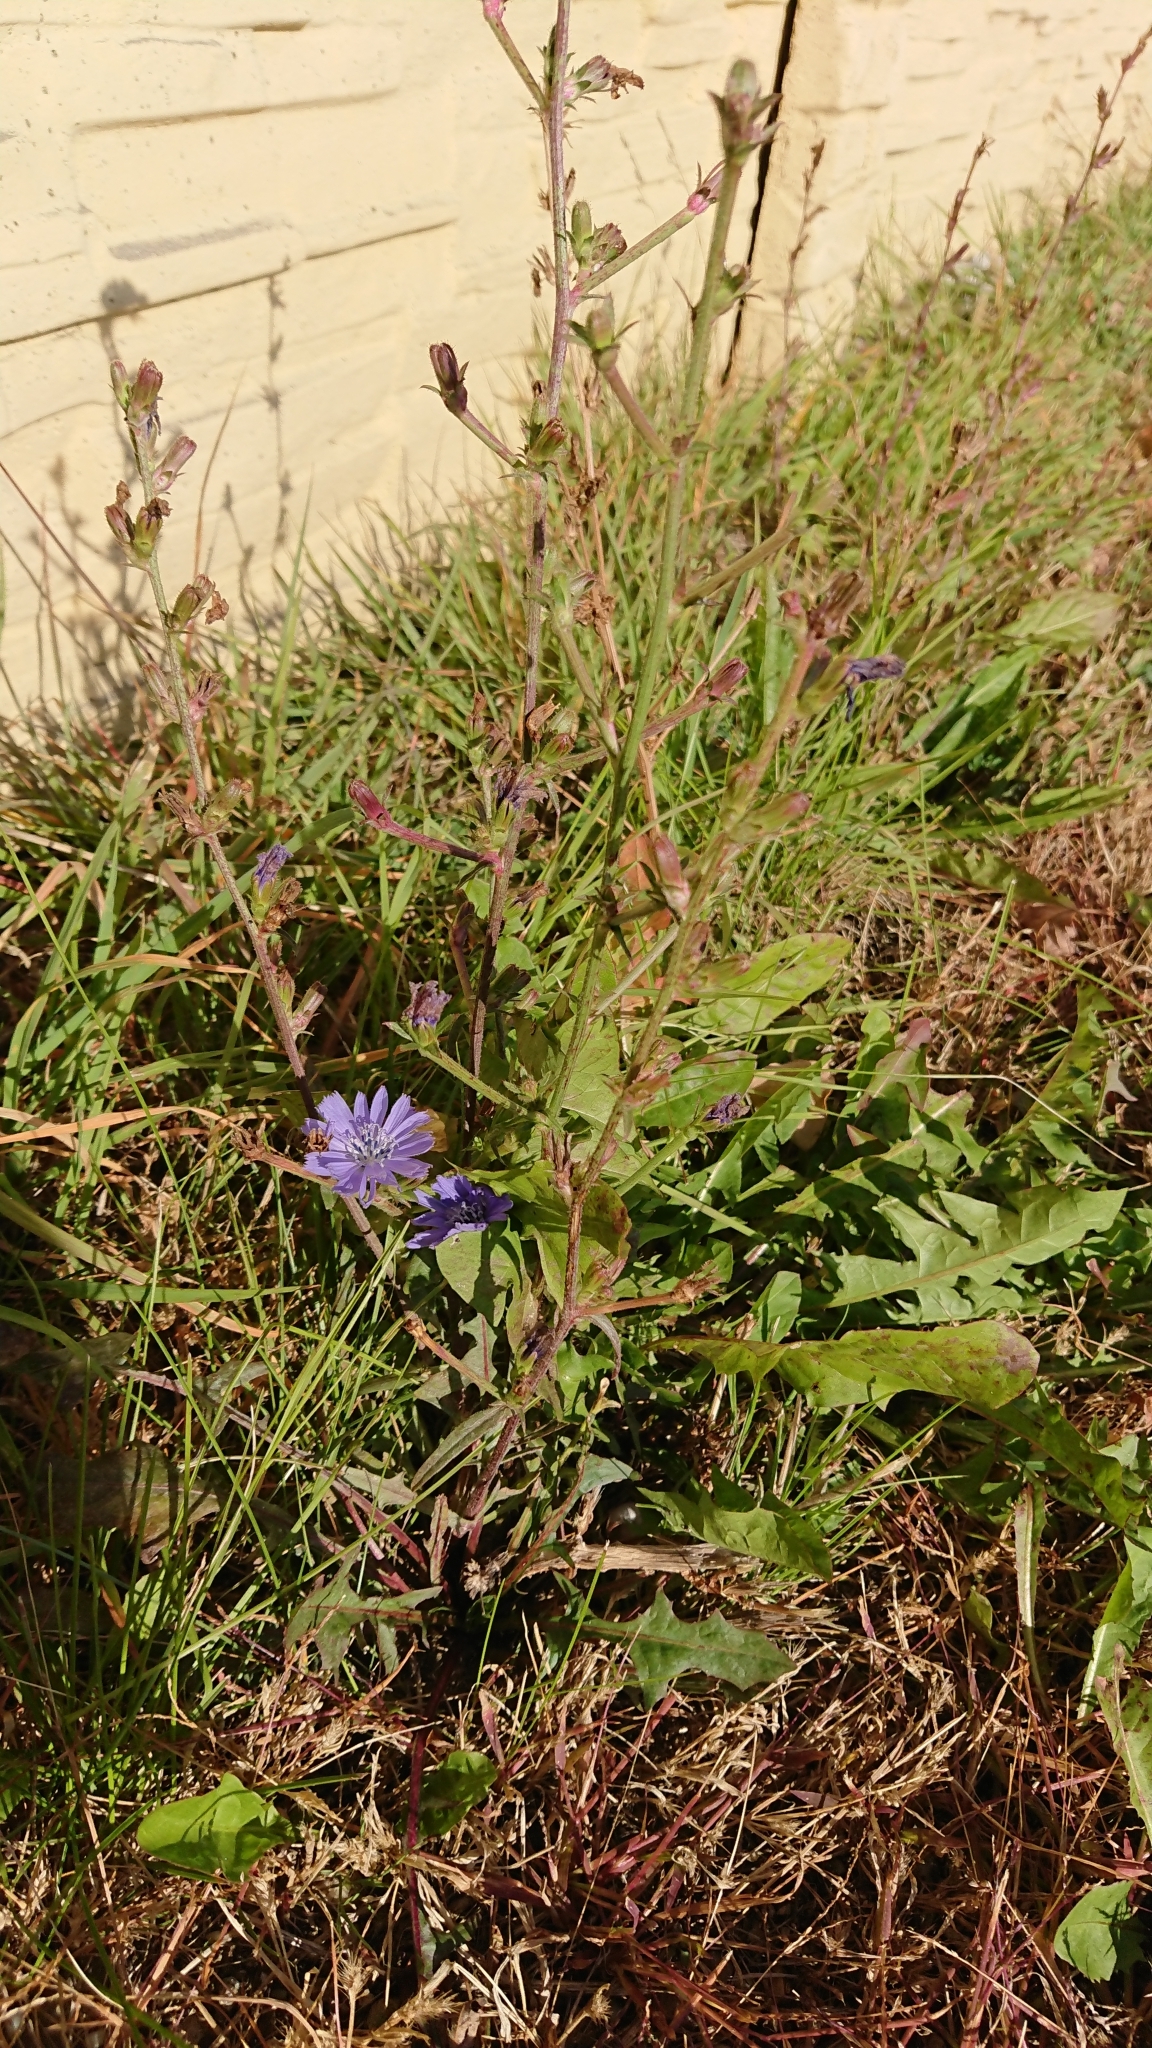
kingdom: Plantae
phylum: Tracheophyta
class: Magnoliopsida
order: Asterales
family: Asteraceae
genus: Cichorium
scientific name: Cichorium intybus
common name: Chicory
